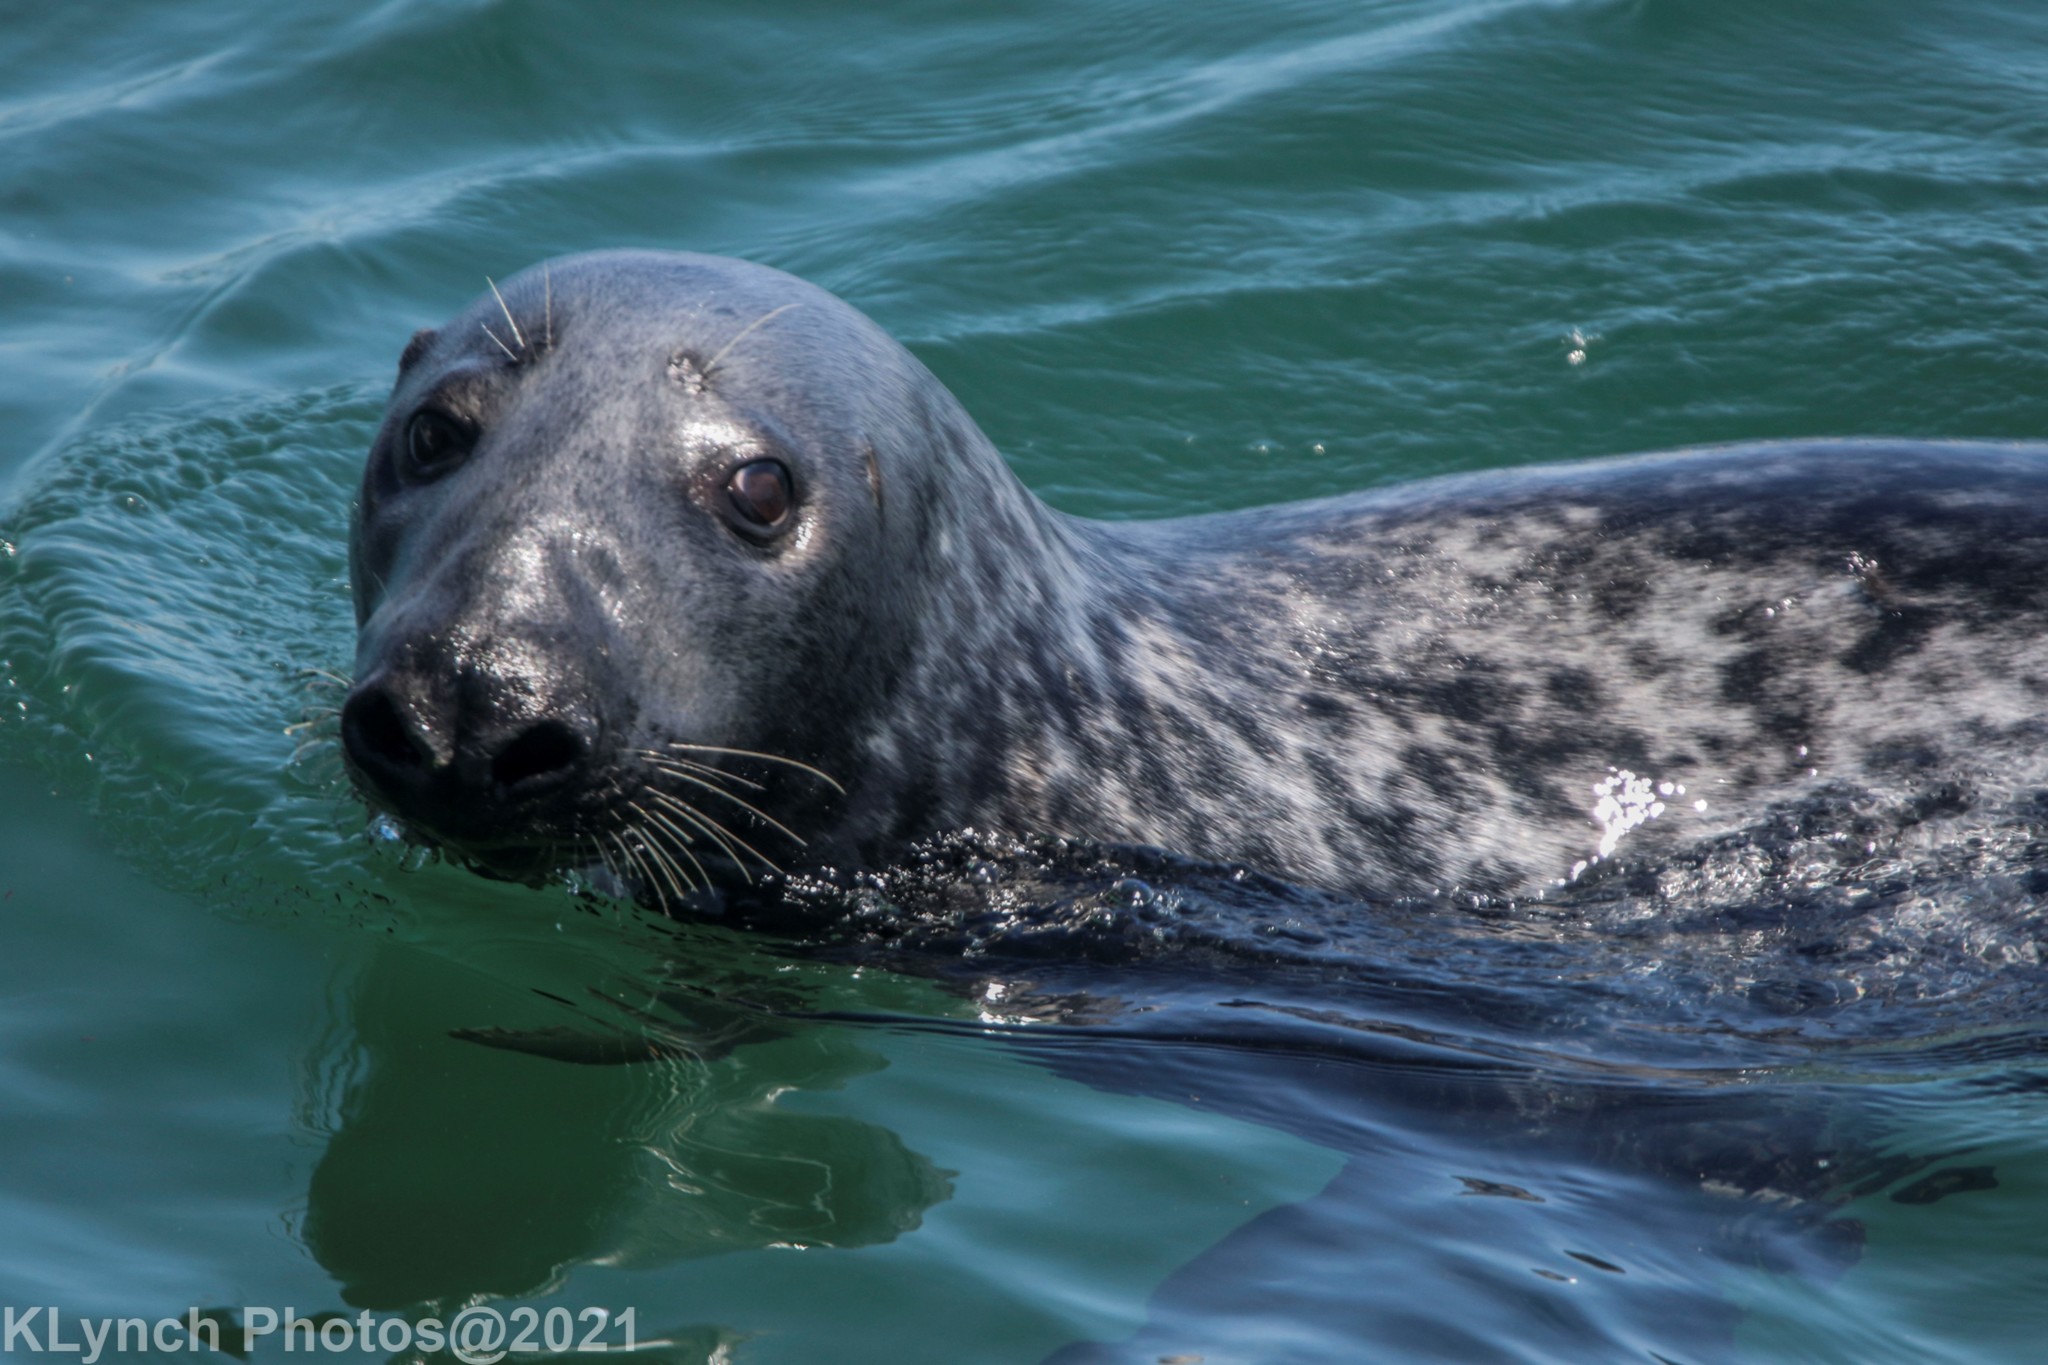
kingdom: Animalia
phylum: Chordata
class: Mammalia
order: Carnivora
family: Phocidae
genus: Halichoerus
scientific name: Halichoerus grypus
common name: Grey seal
